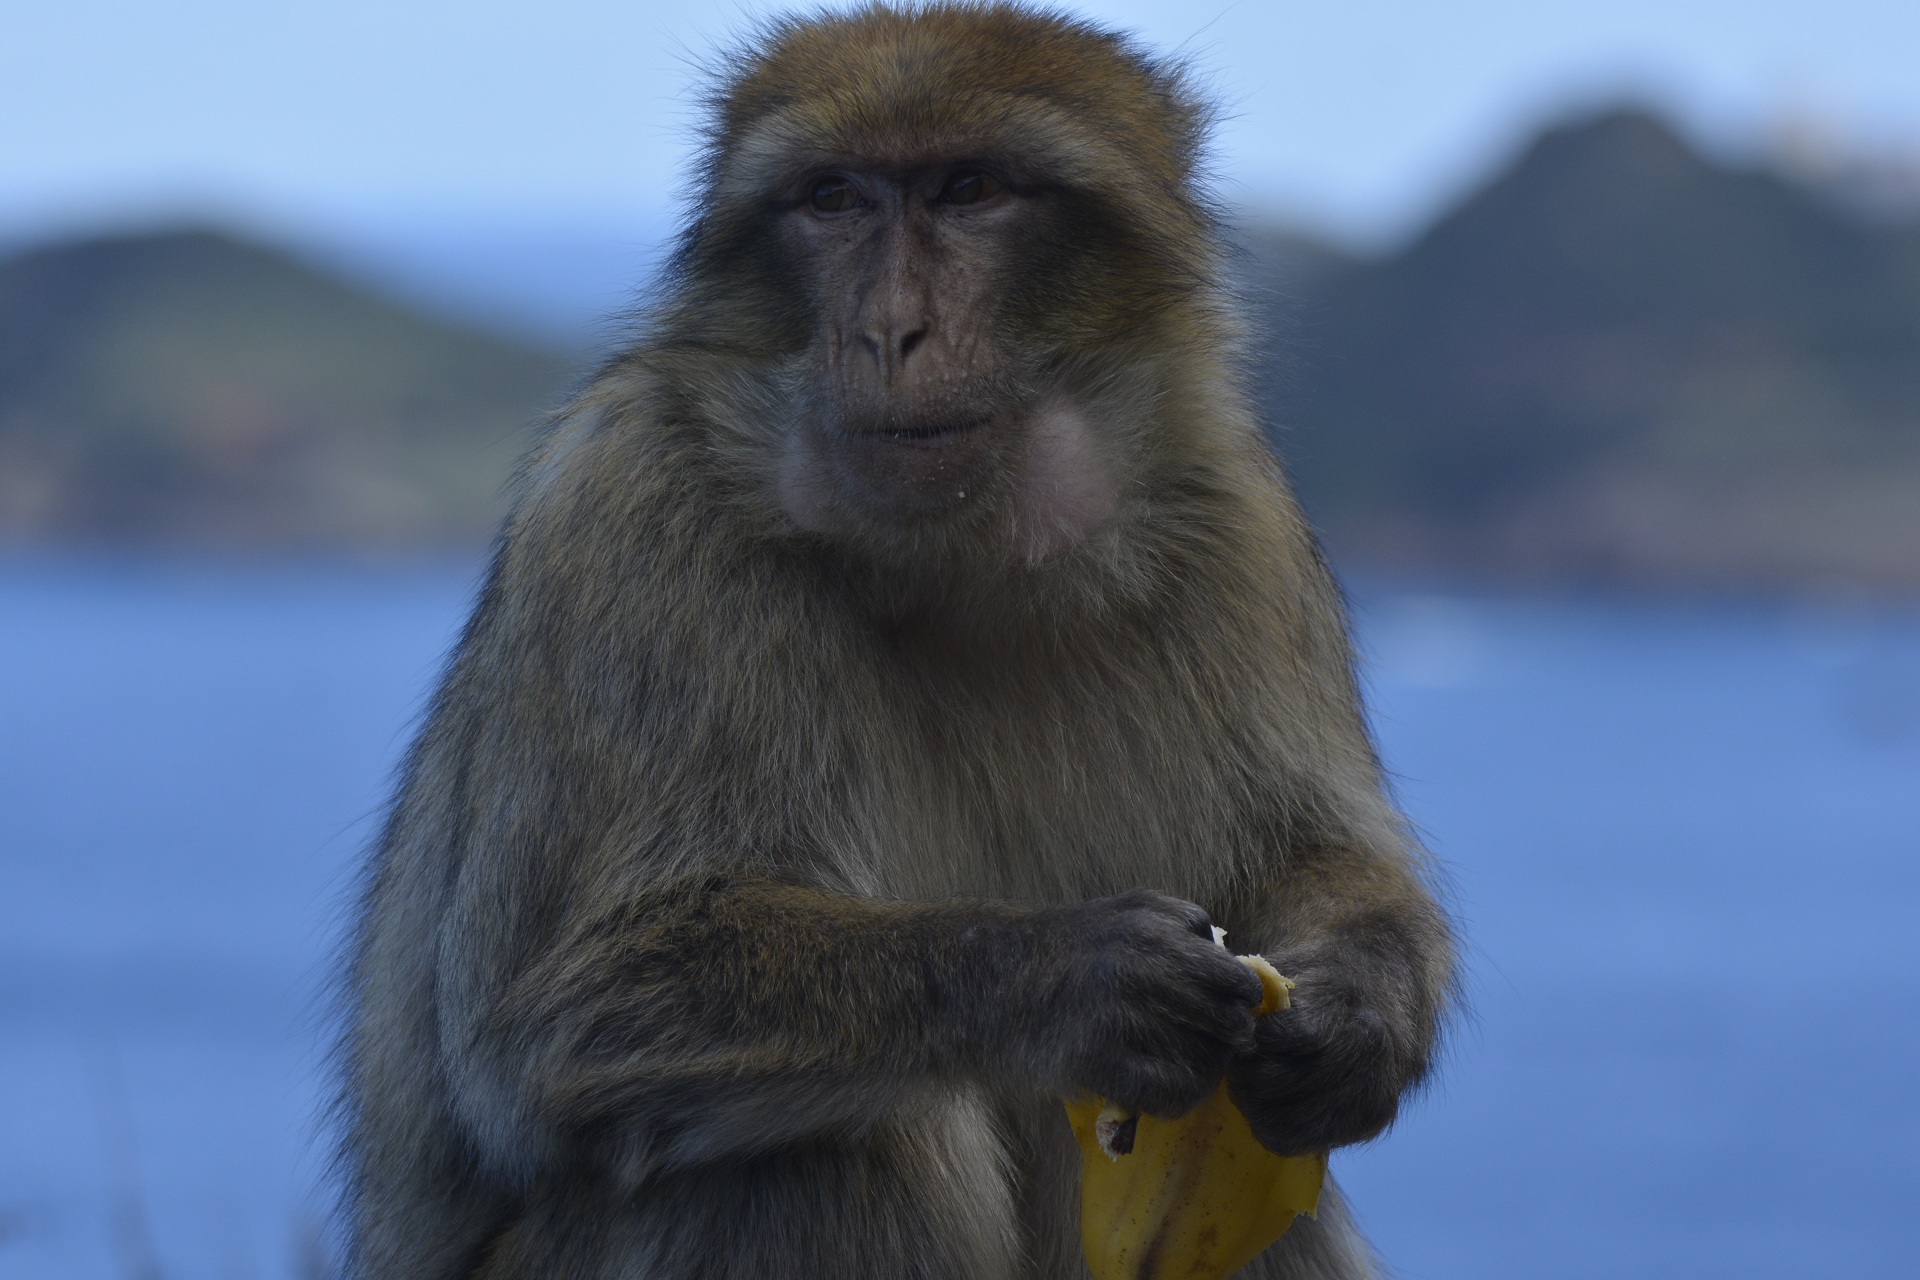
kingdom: Animalia
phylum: Chordata
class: Mammalia
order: Primates
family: Cercopithecidae
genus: Macaca
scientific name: Macaca sylvanus
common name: Barbary macaque
